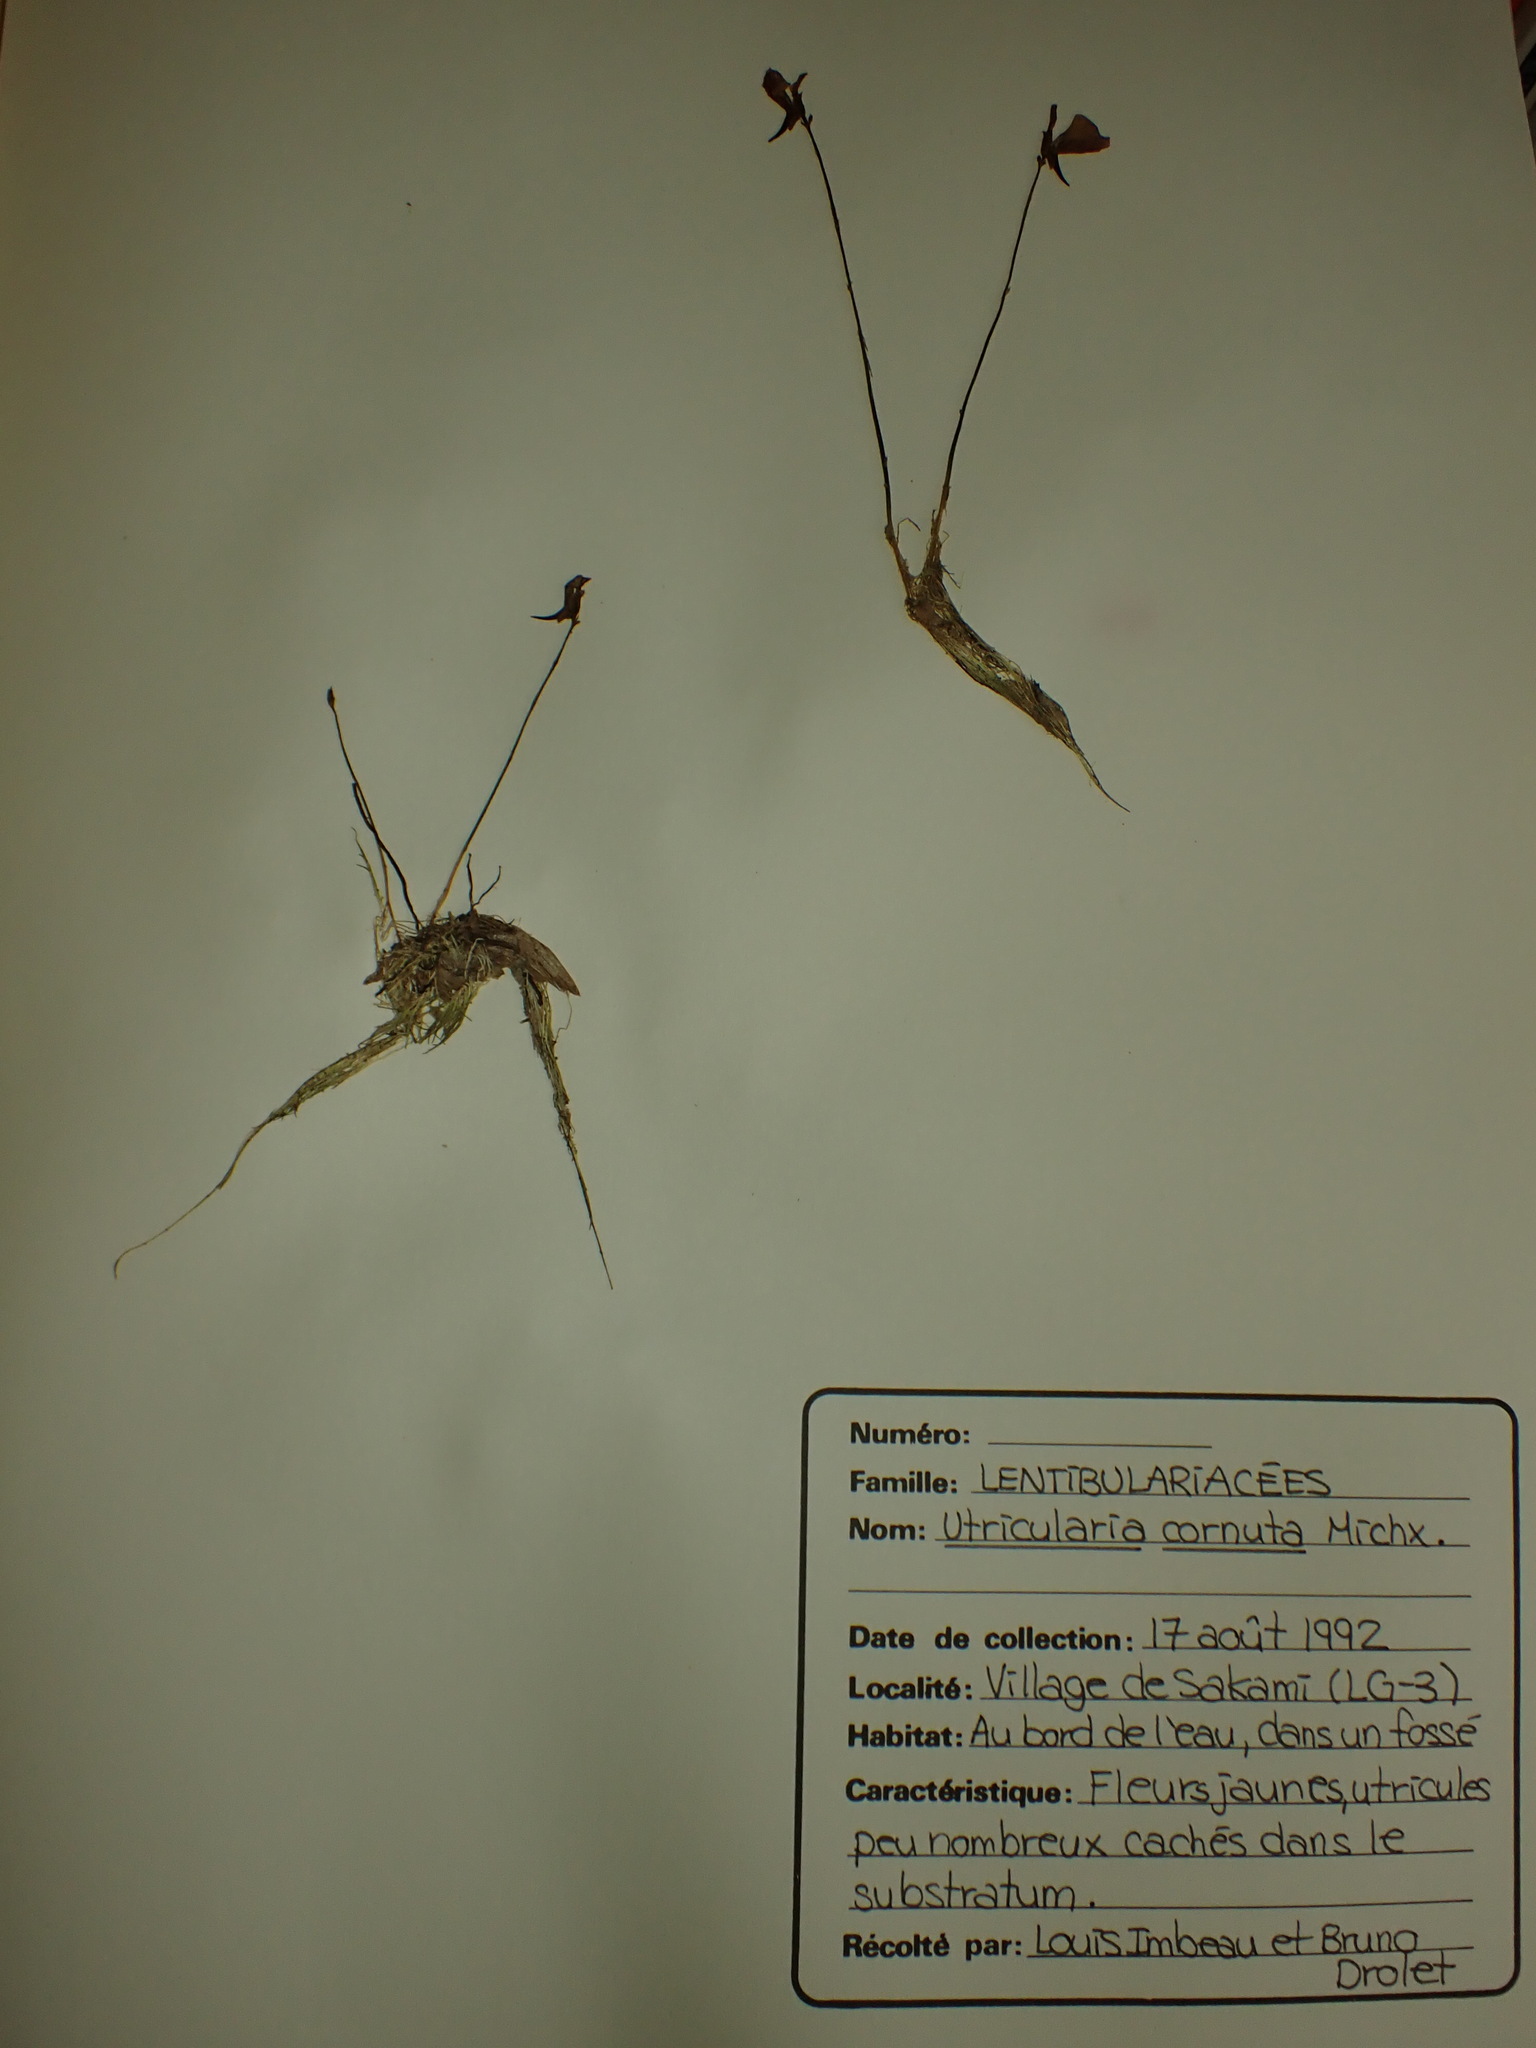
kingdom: Plantae
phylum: Tracheophyta
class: Magnoliopsida
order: Lamiales
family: Lentibulariaceae
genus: Utricularia
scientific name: Utricularia cornuta
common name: Horned bladderwort
